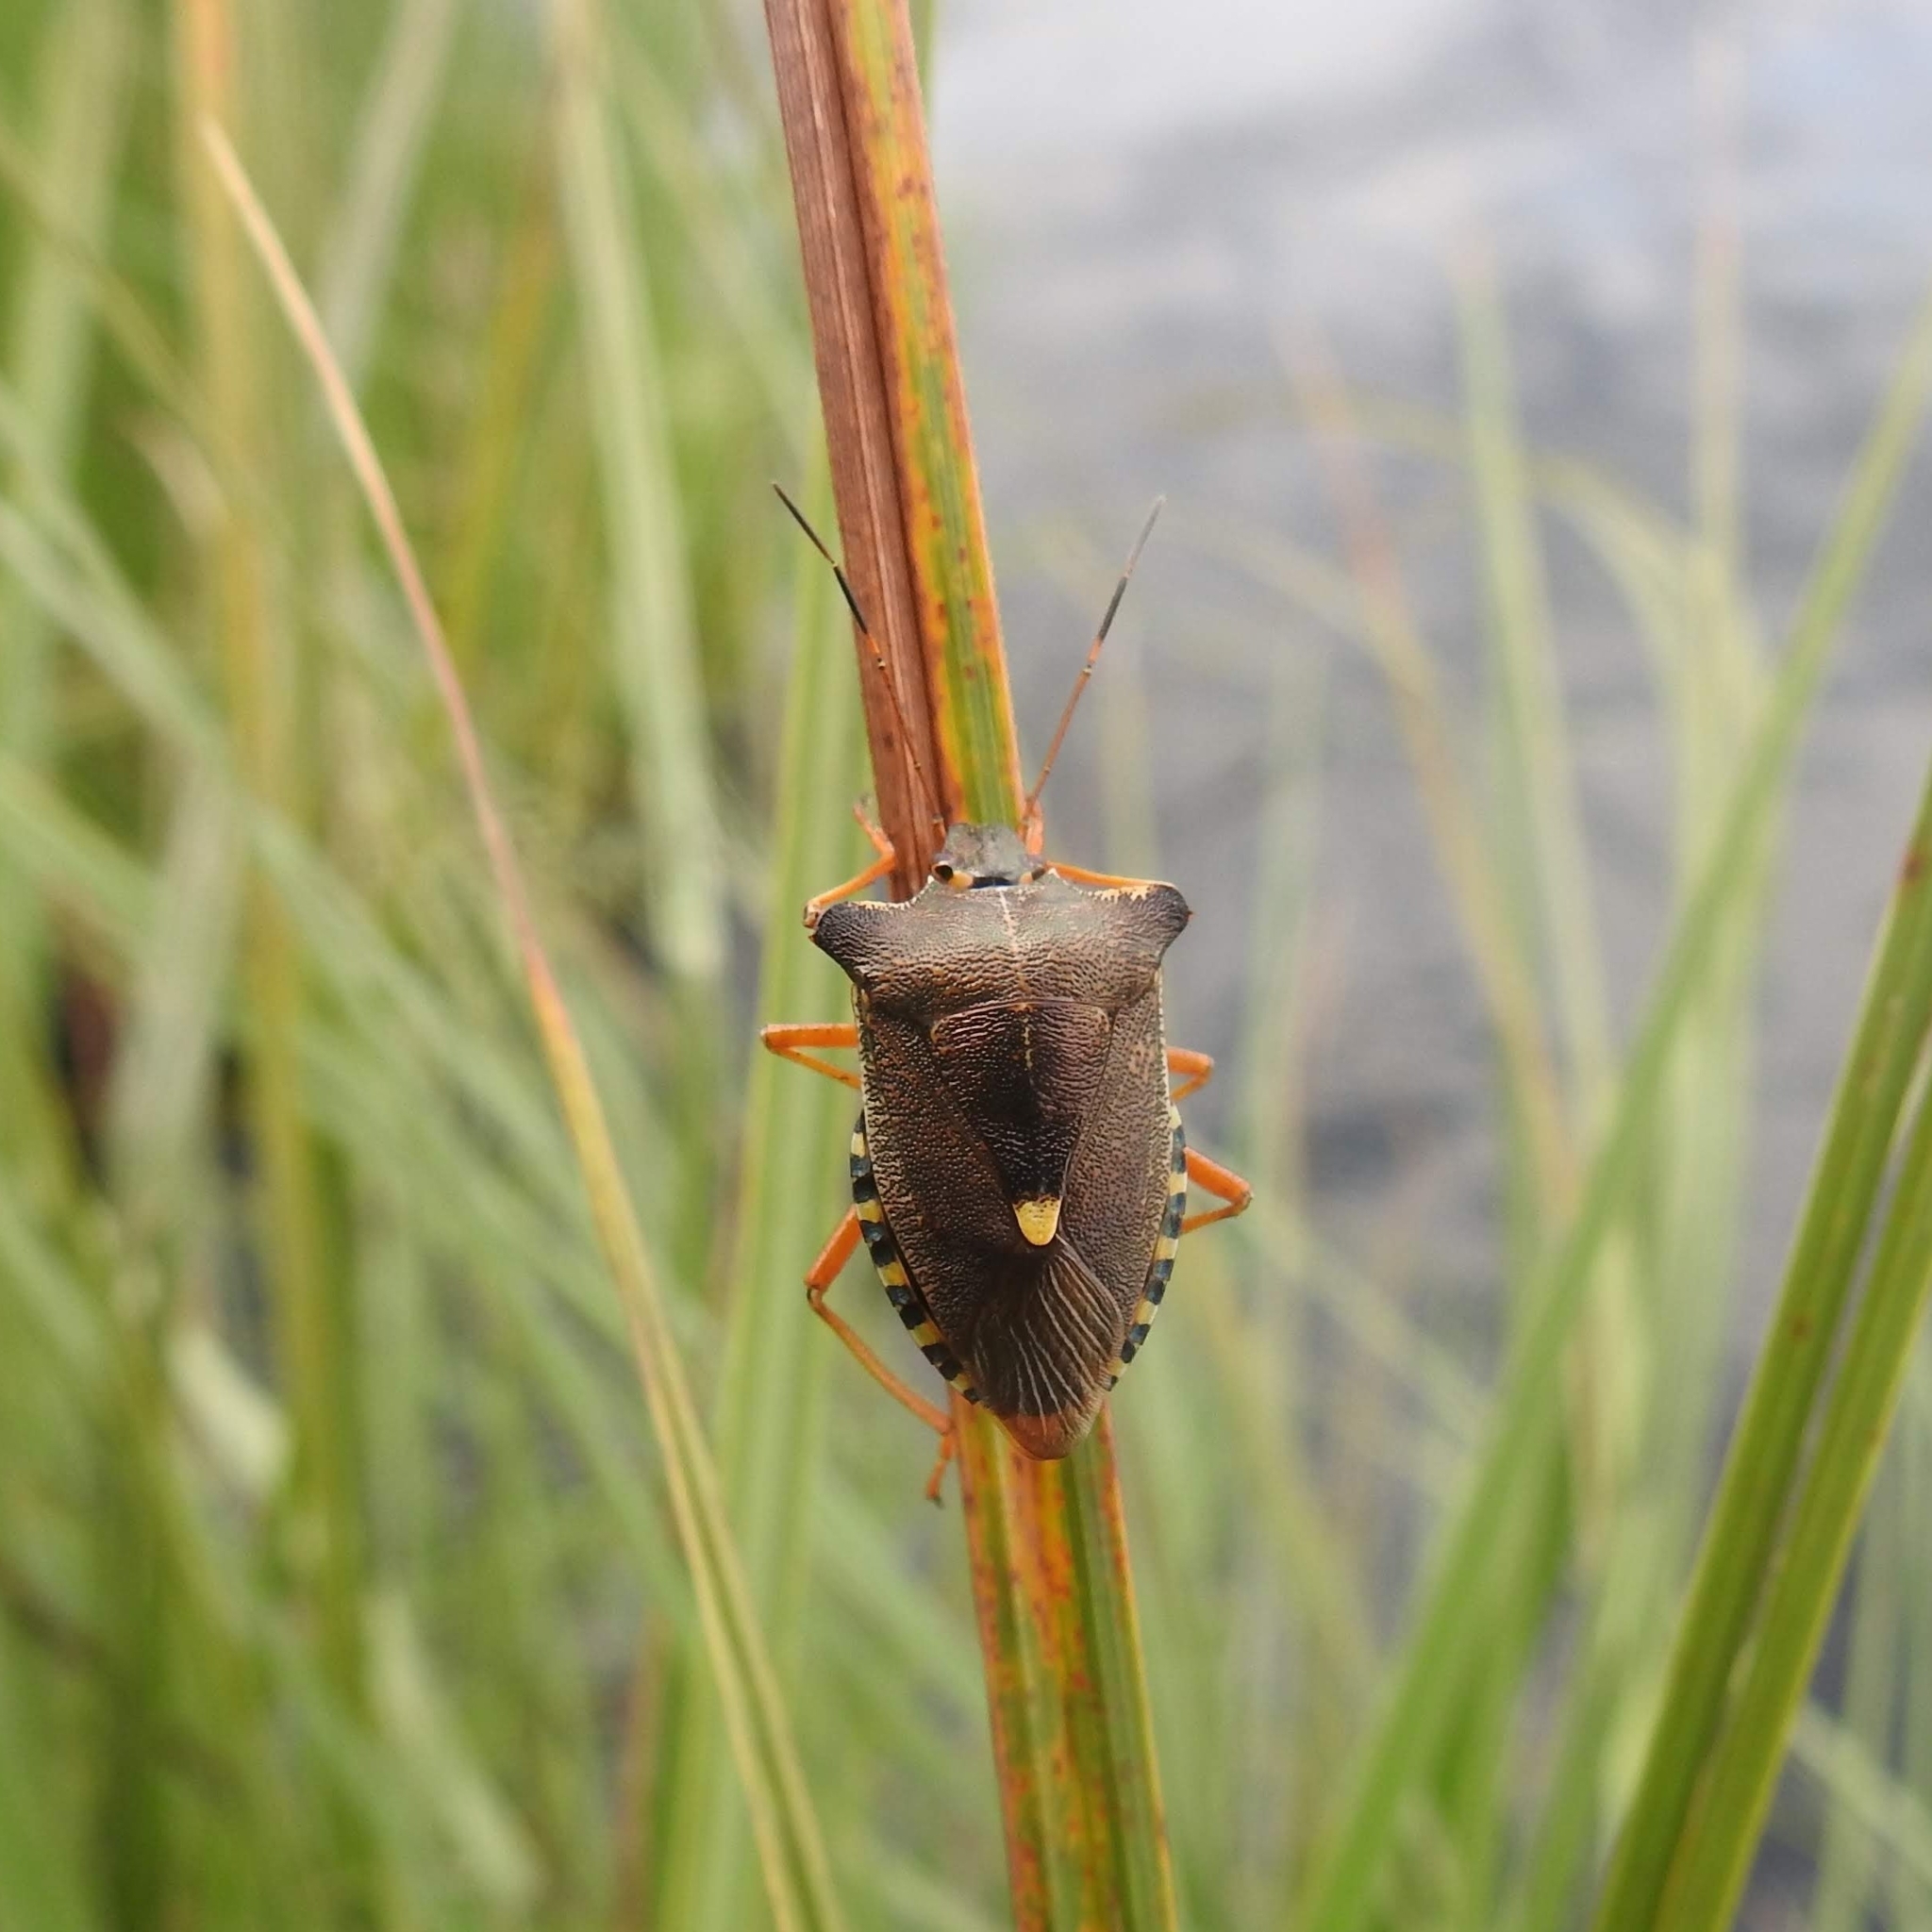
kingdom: Animalia
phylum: Arthropoda
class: Insecta
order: Hemiptera
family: Pentatomidae
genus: Pentatoma
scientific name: Pentatoma rufipes
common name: Forest bug
